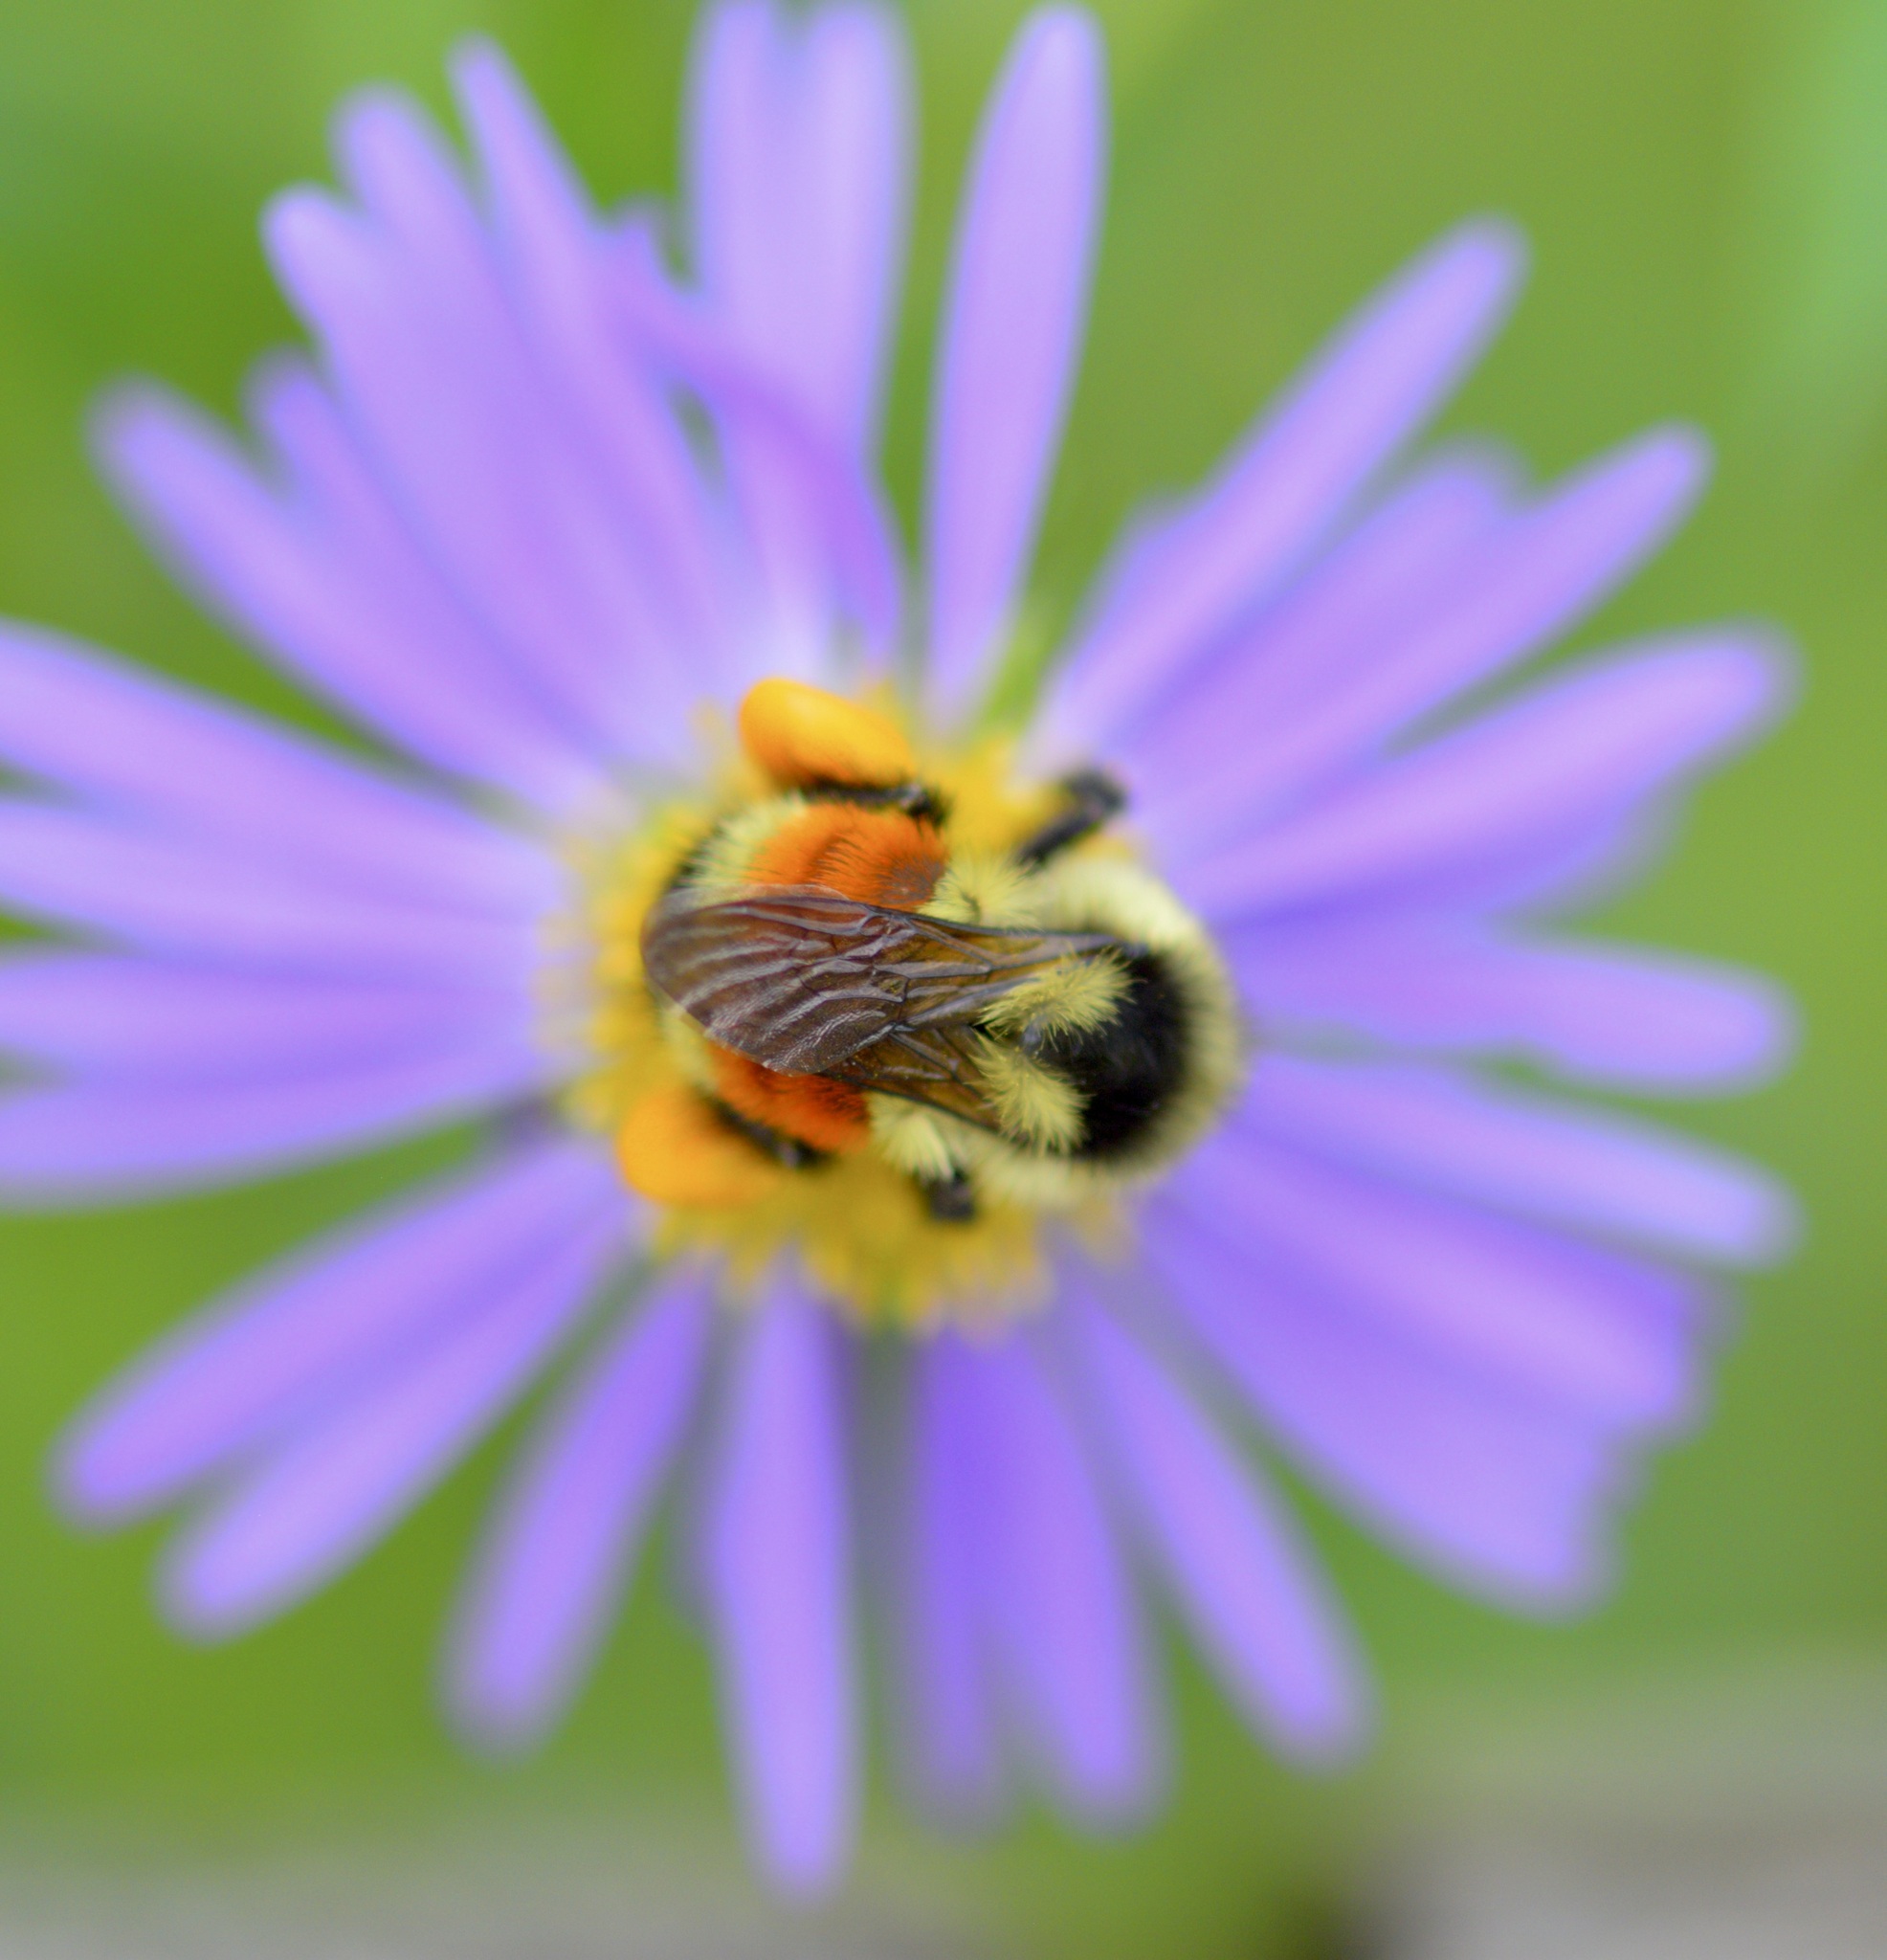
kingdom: Animalia
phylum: Arthropoda
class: Insecta
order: Hymenoptera
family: Apidae
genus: Bombus
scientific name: Bombus ternarius
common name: Tri-colored bumble bee
